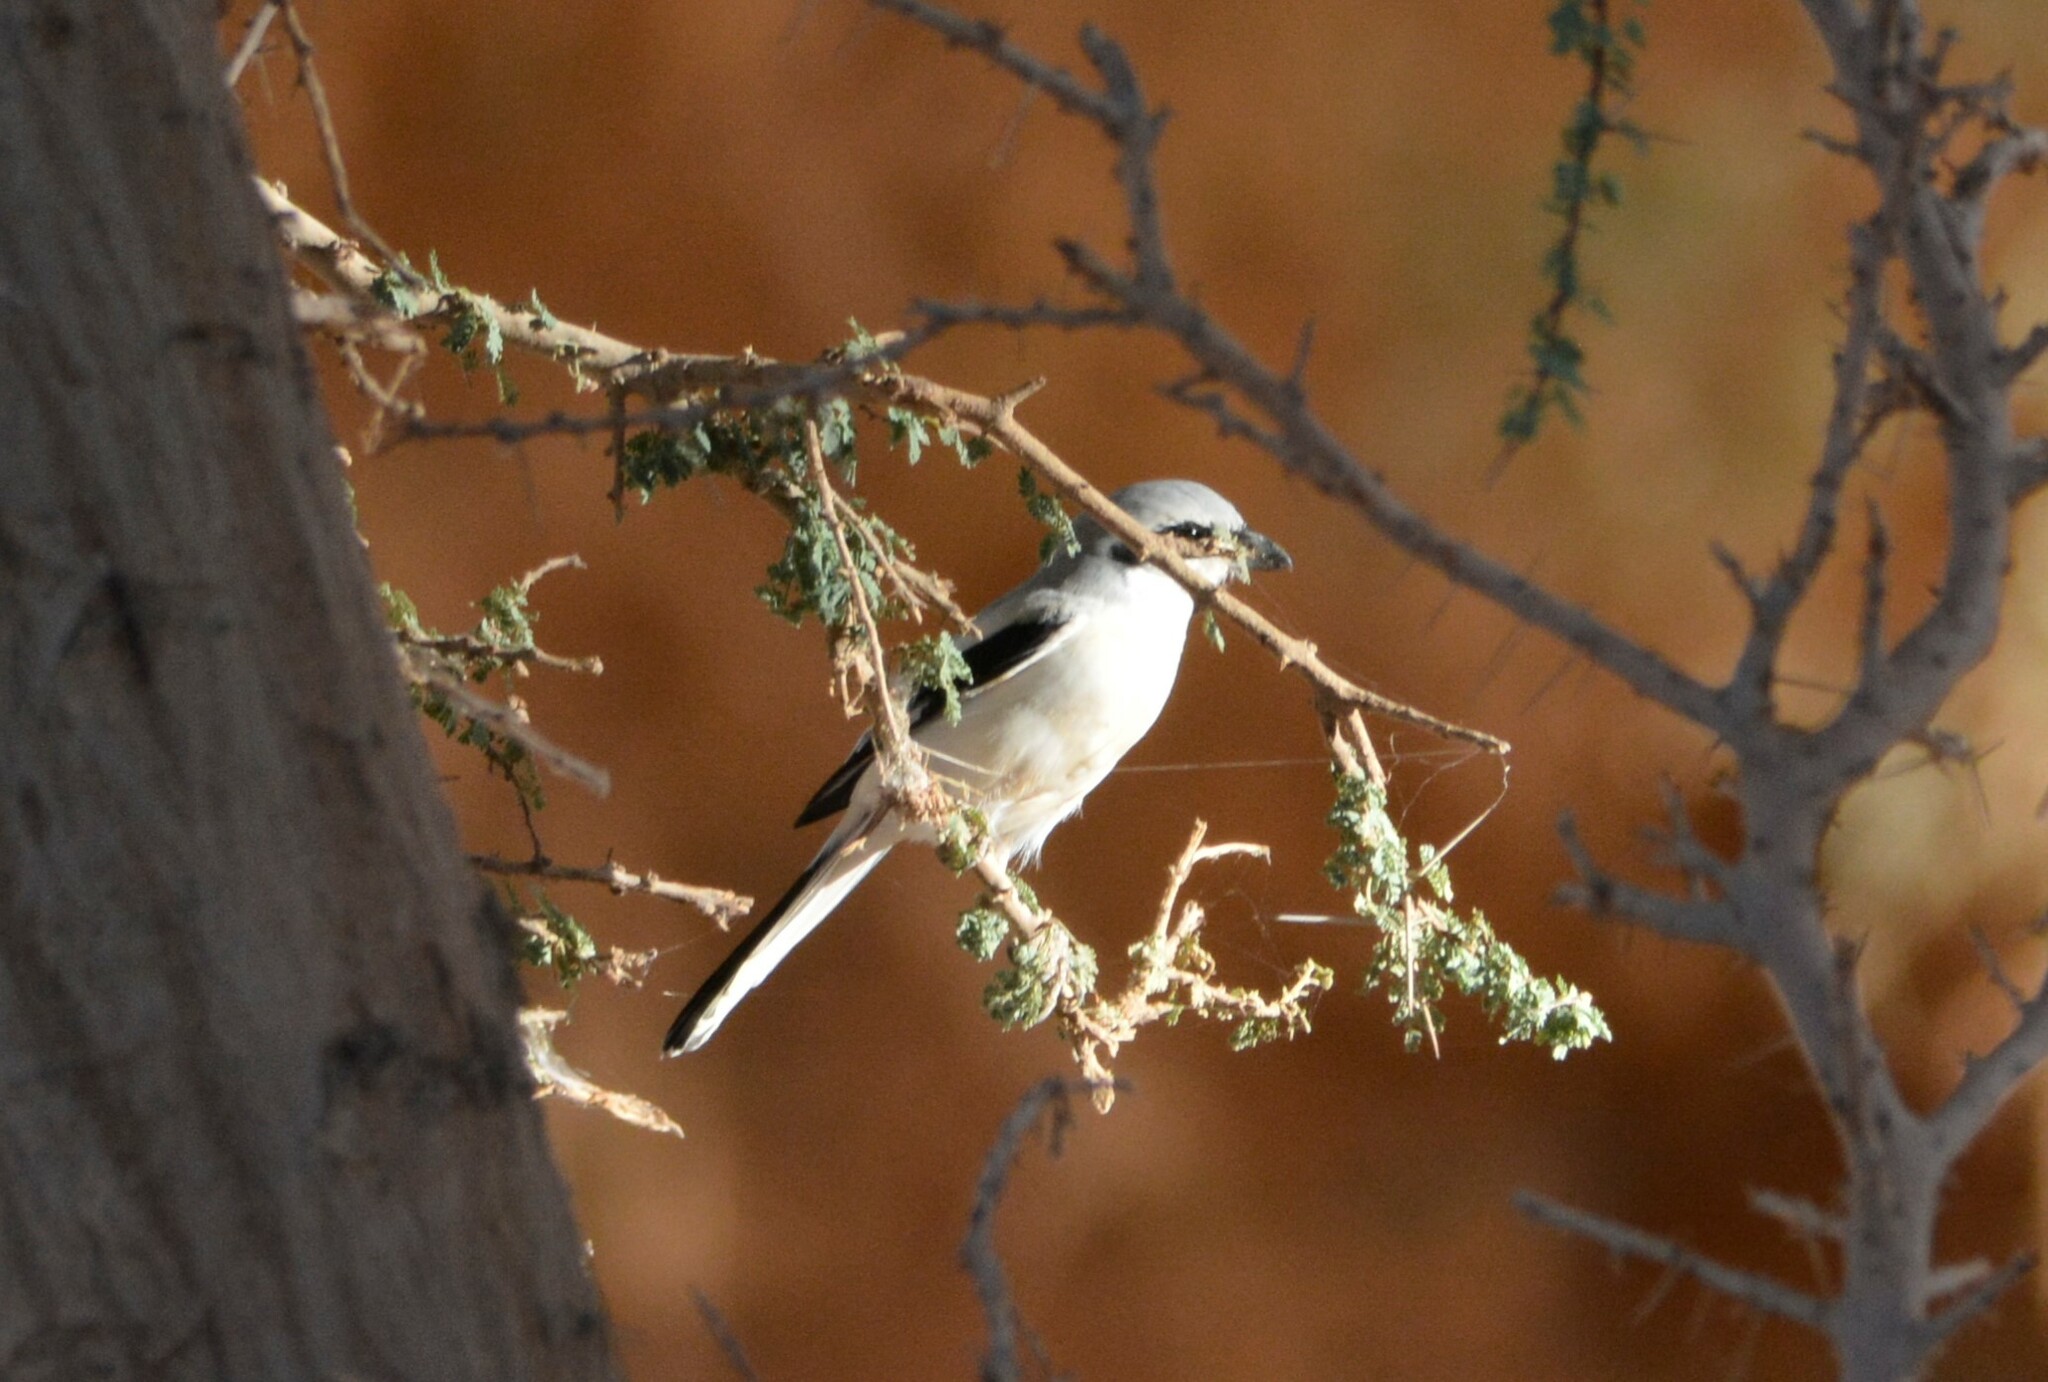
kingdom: Animalia
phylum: Chordata
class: Aves
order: Passeriformes
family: Laniidae
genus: Lanius
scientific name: Lanius excubitor
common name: Great grey shrike
